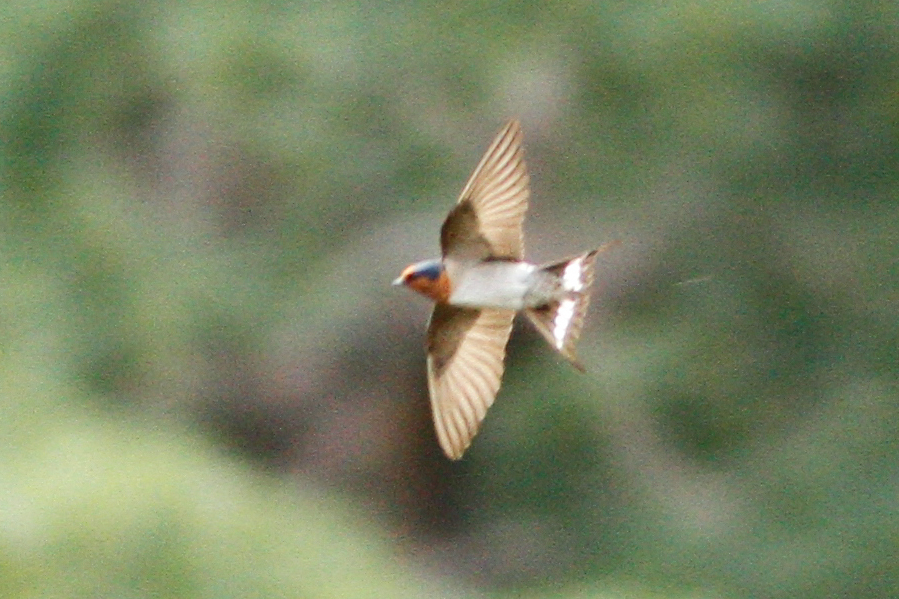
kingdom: Animalia
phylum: Chordata
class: Aves
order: Passeriformes
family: Hirundinidae
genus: Hirundo
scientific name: Hirundo neoxena
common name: Welcome swallow
